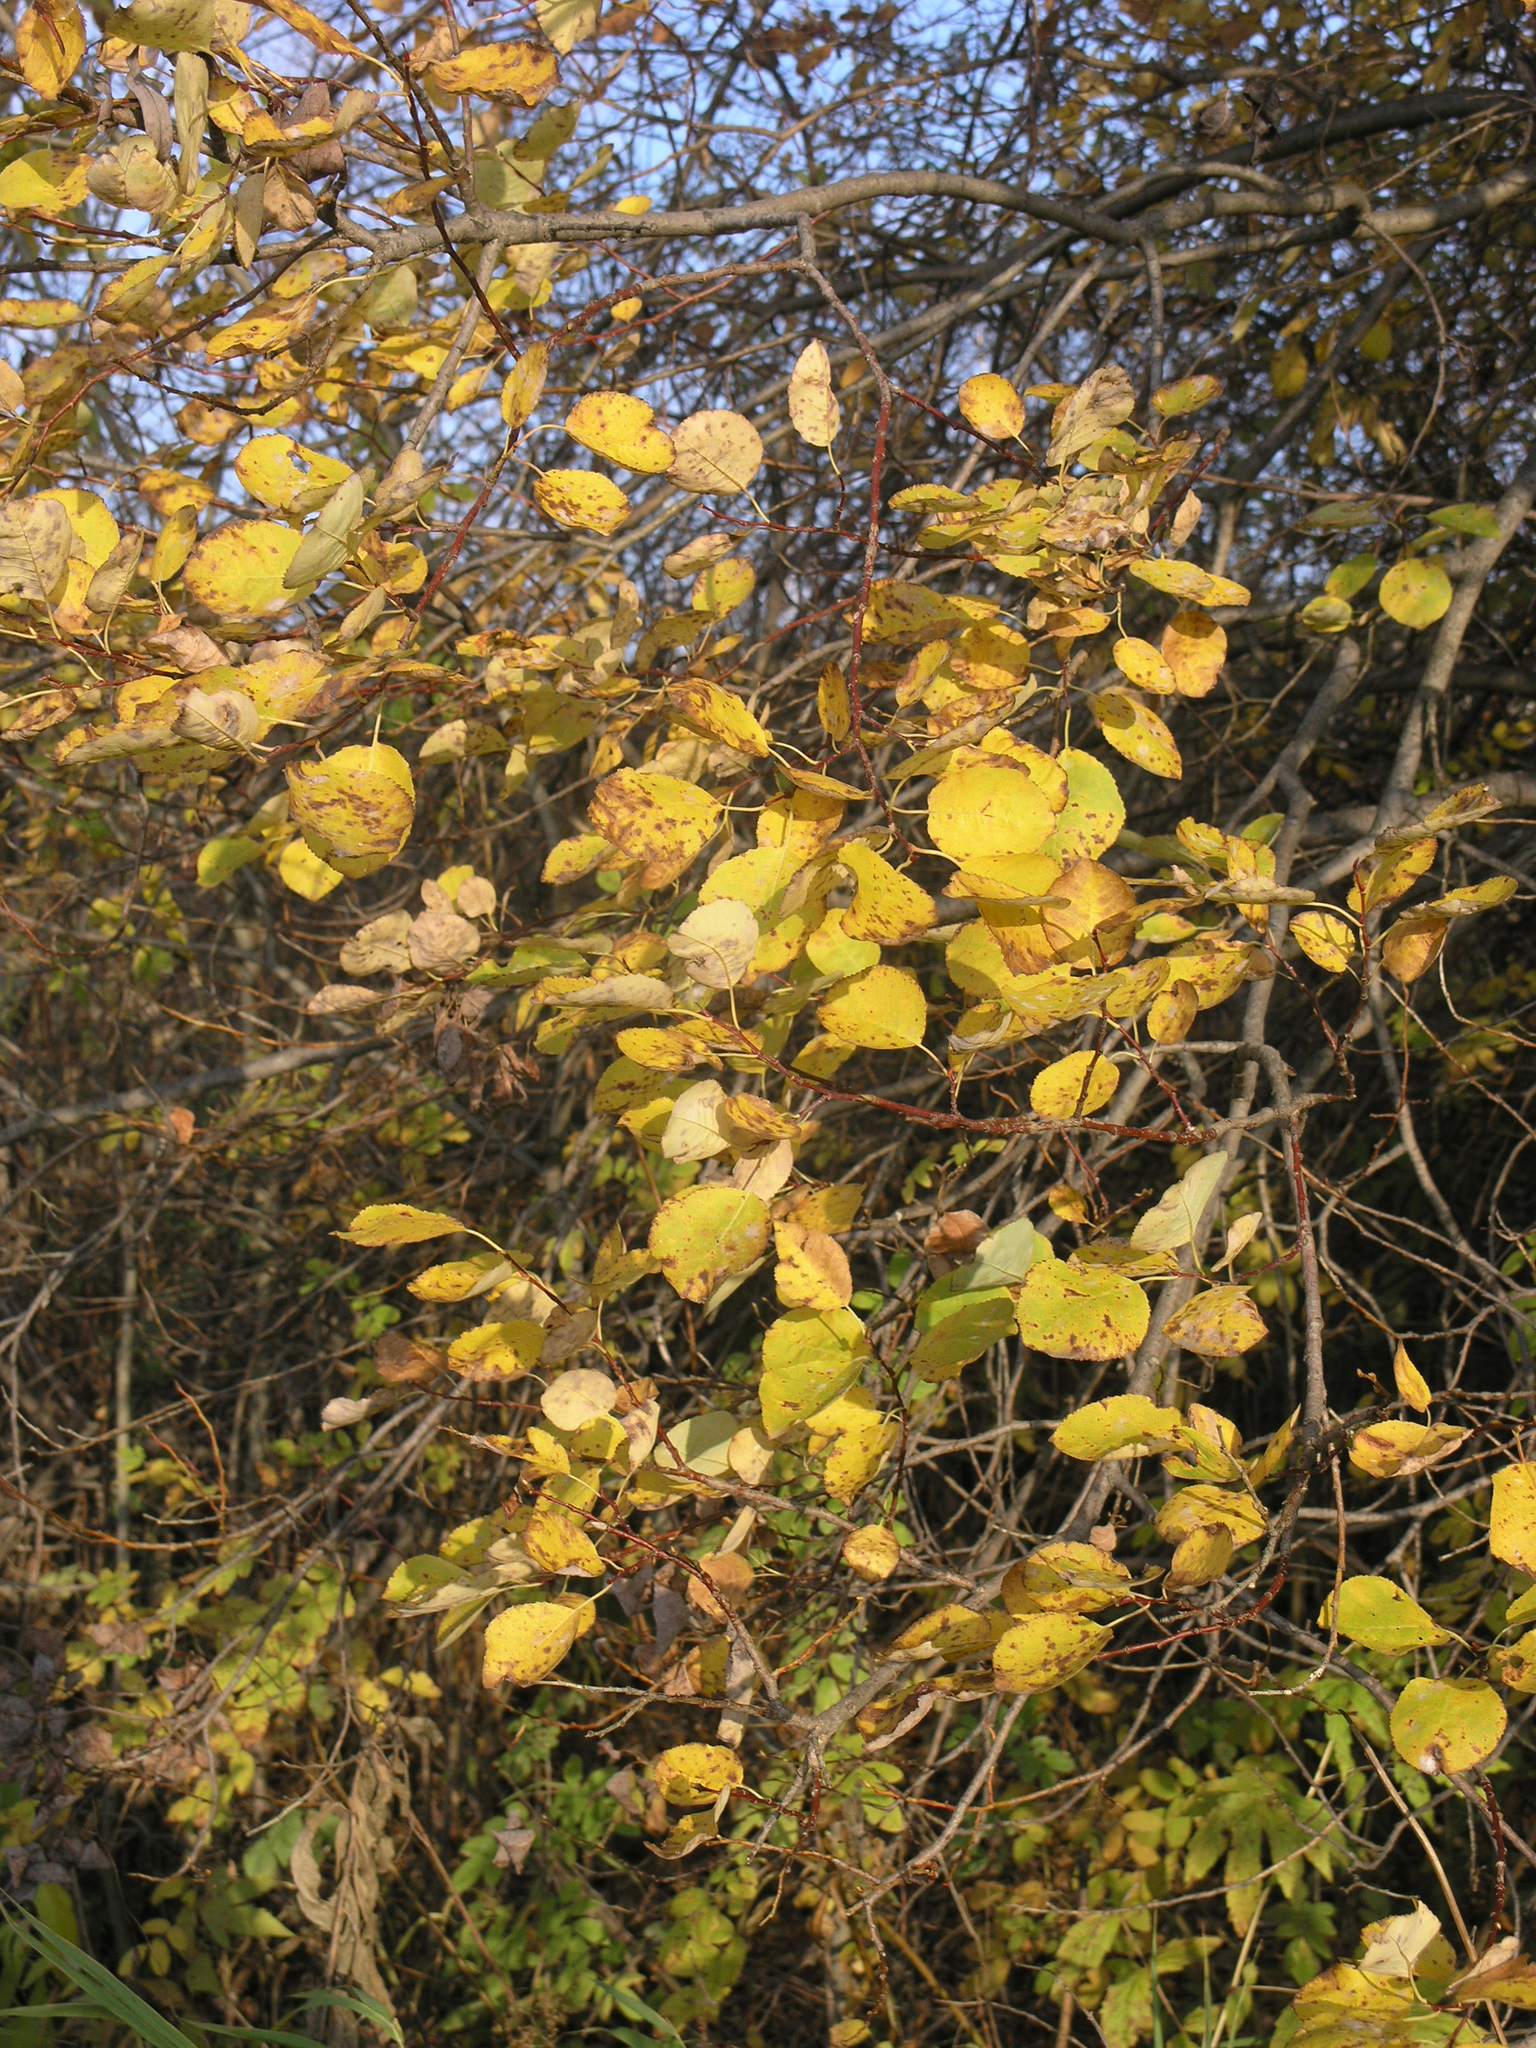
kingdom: Plantae
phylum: Tracheophyta
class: Magnoliopsida
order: Malpighiales
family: Salicaceae
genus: Salix
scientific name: Salix pyrolifolia
